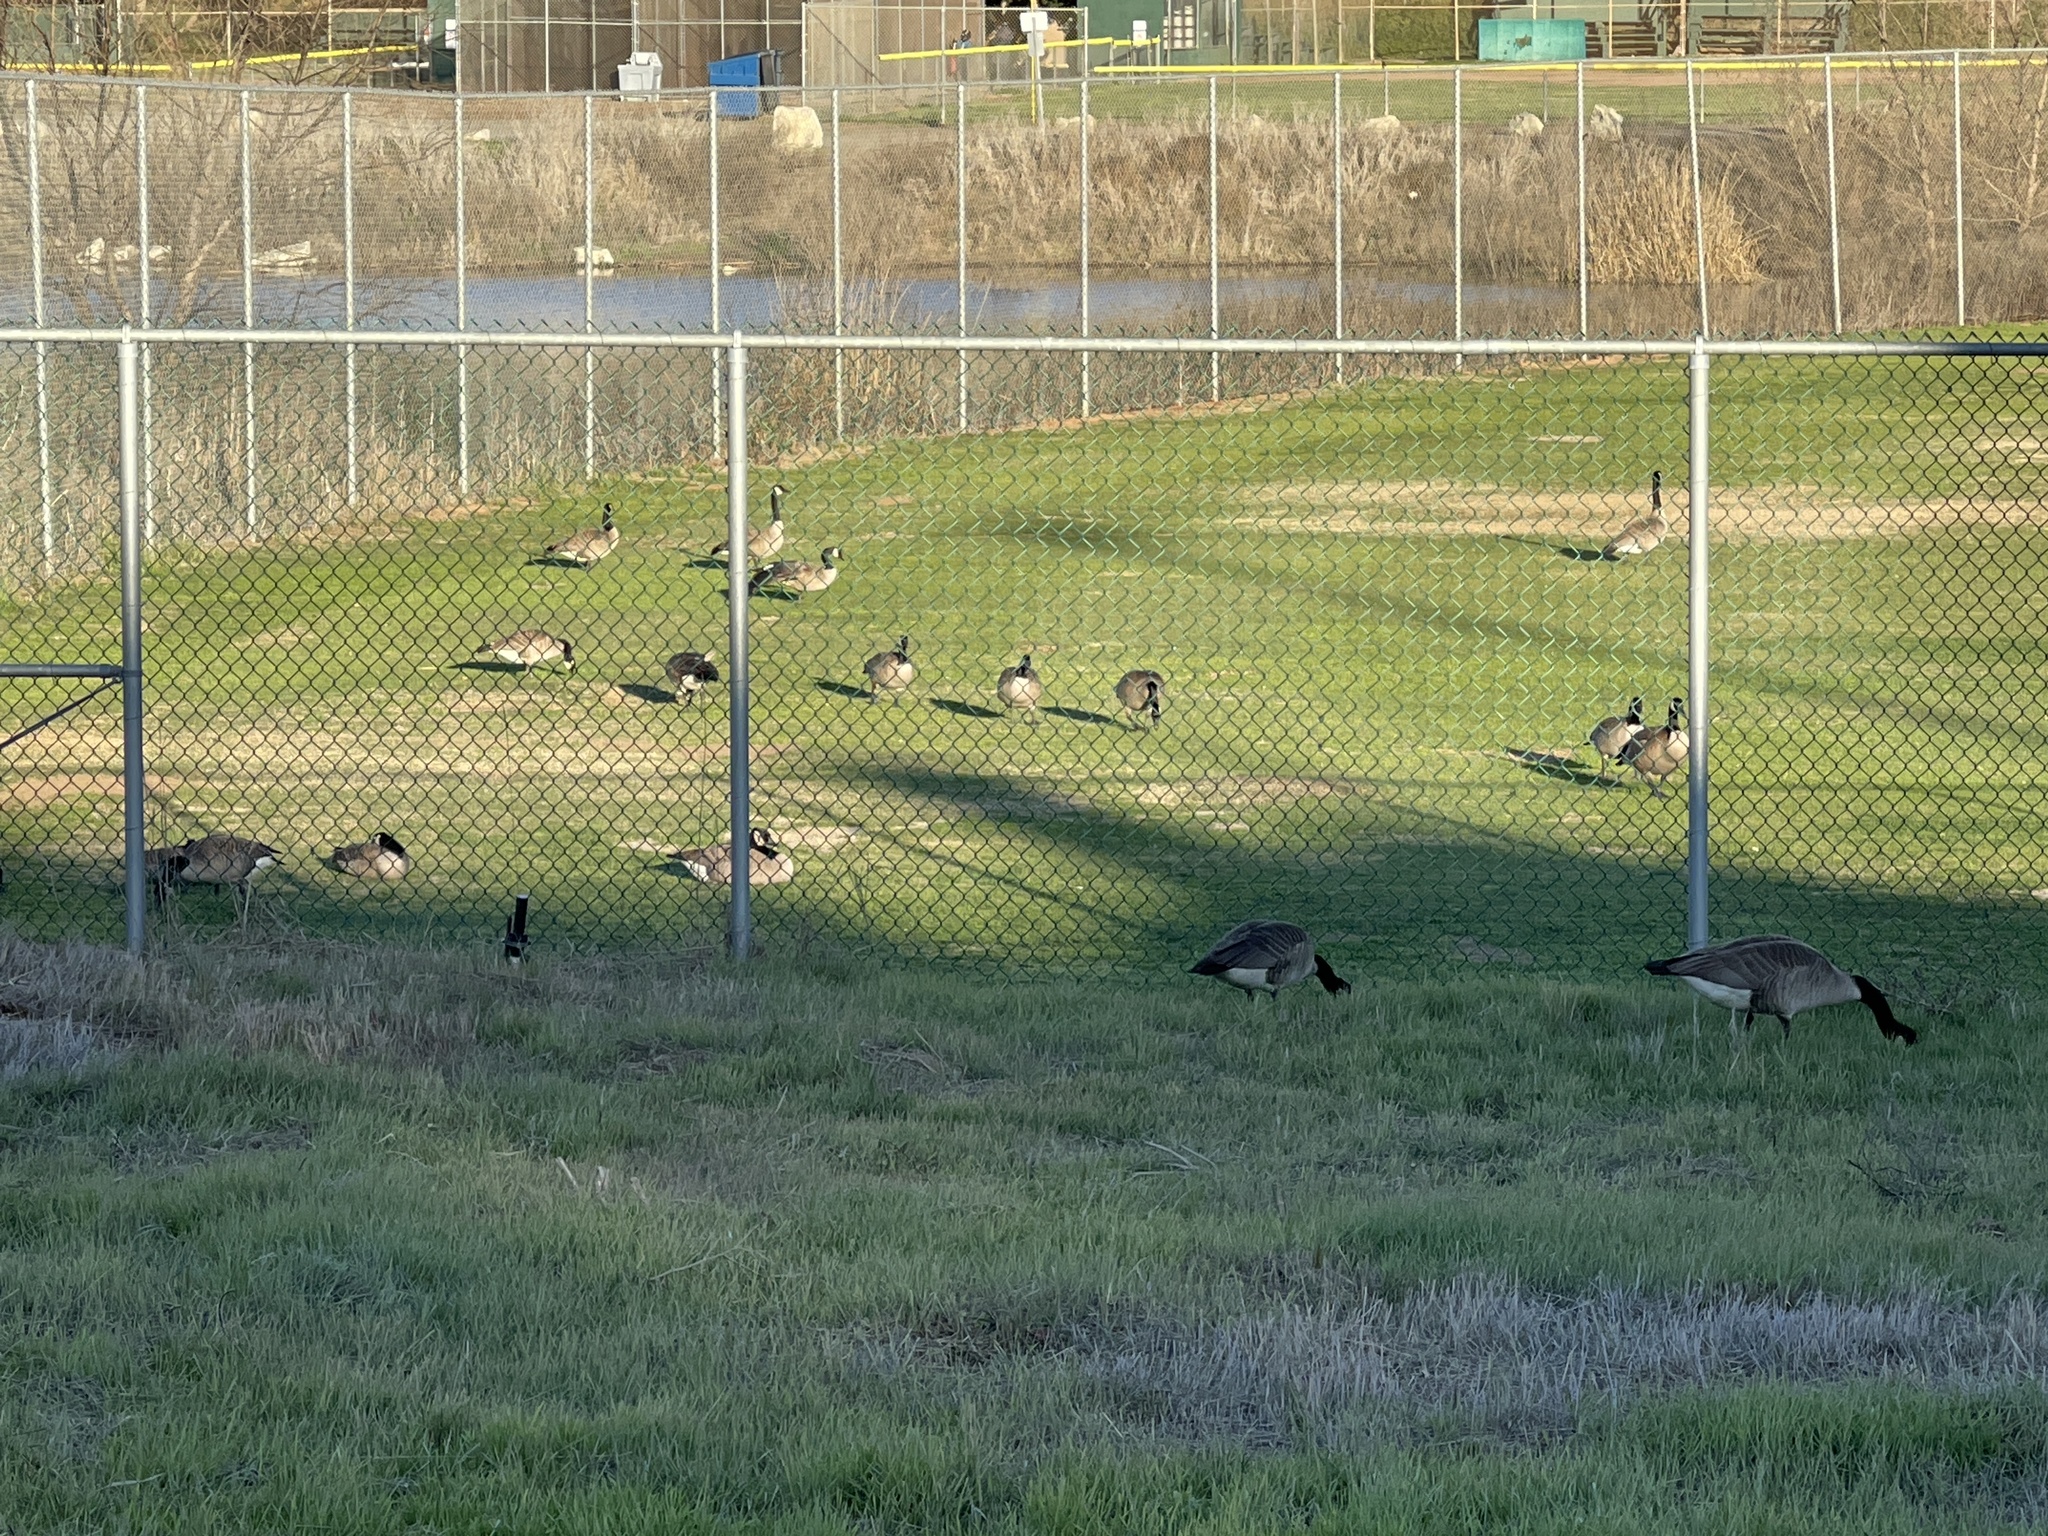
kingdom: Animalia
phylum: Chordata
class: Aves
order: Anseriformes
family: Anatidae
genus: Branta
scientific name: Branta canadensis
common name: Canada goose
